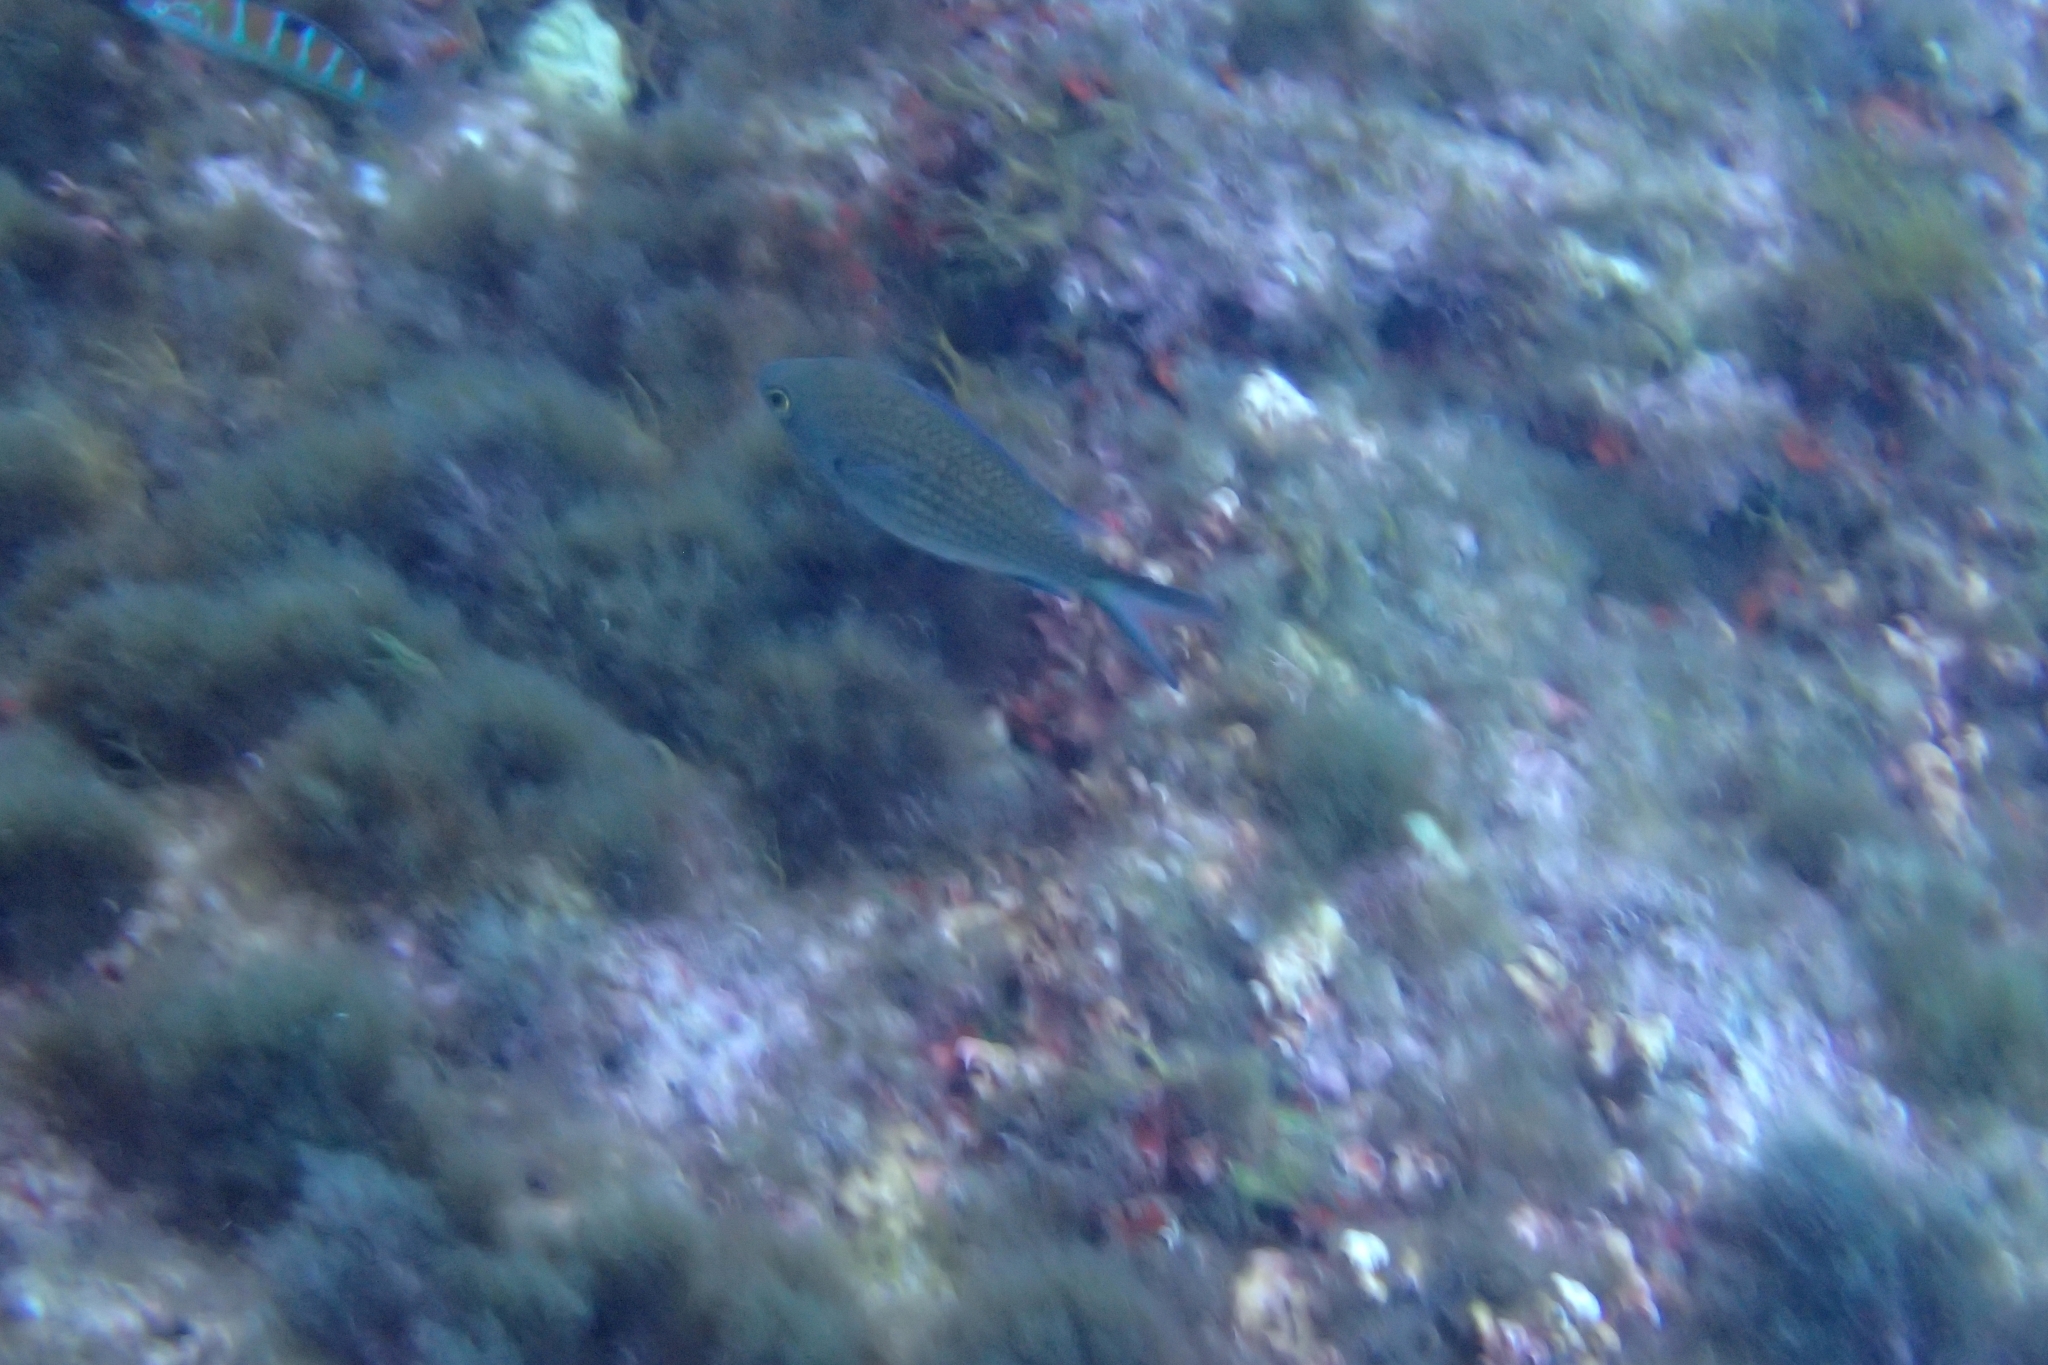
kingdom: Animalia
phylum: Chordata
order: Perciformes
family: Pomacentridae
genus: Chromis
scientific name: Chromis chromis
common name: Damselfish
